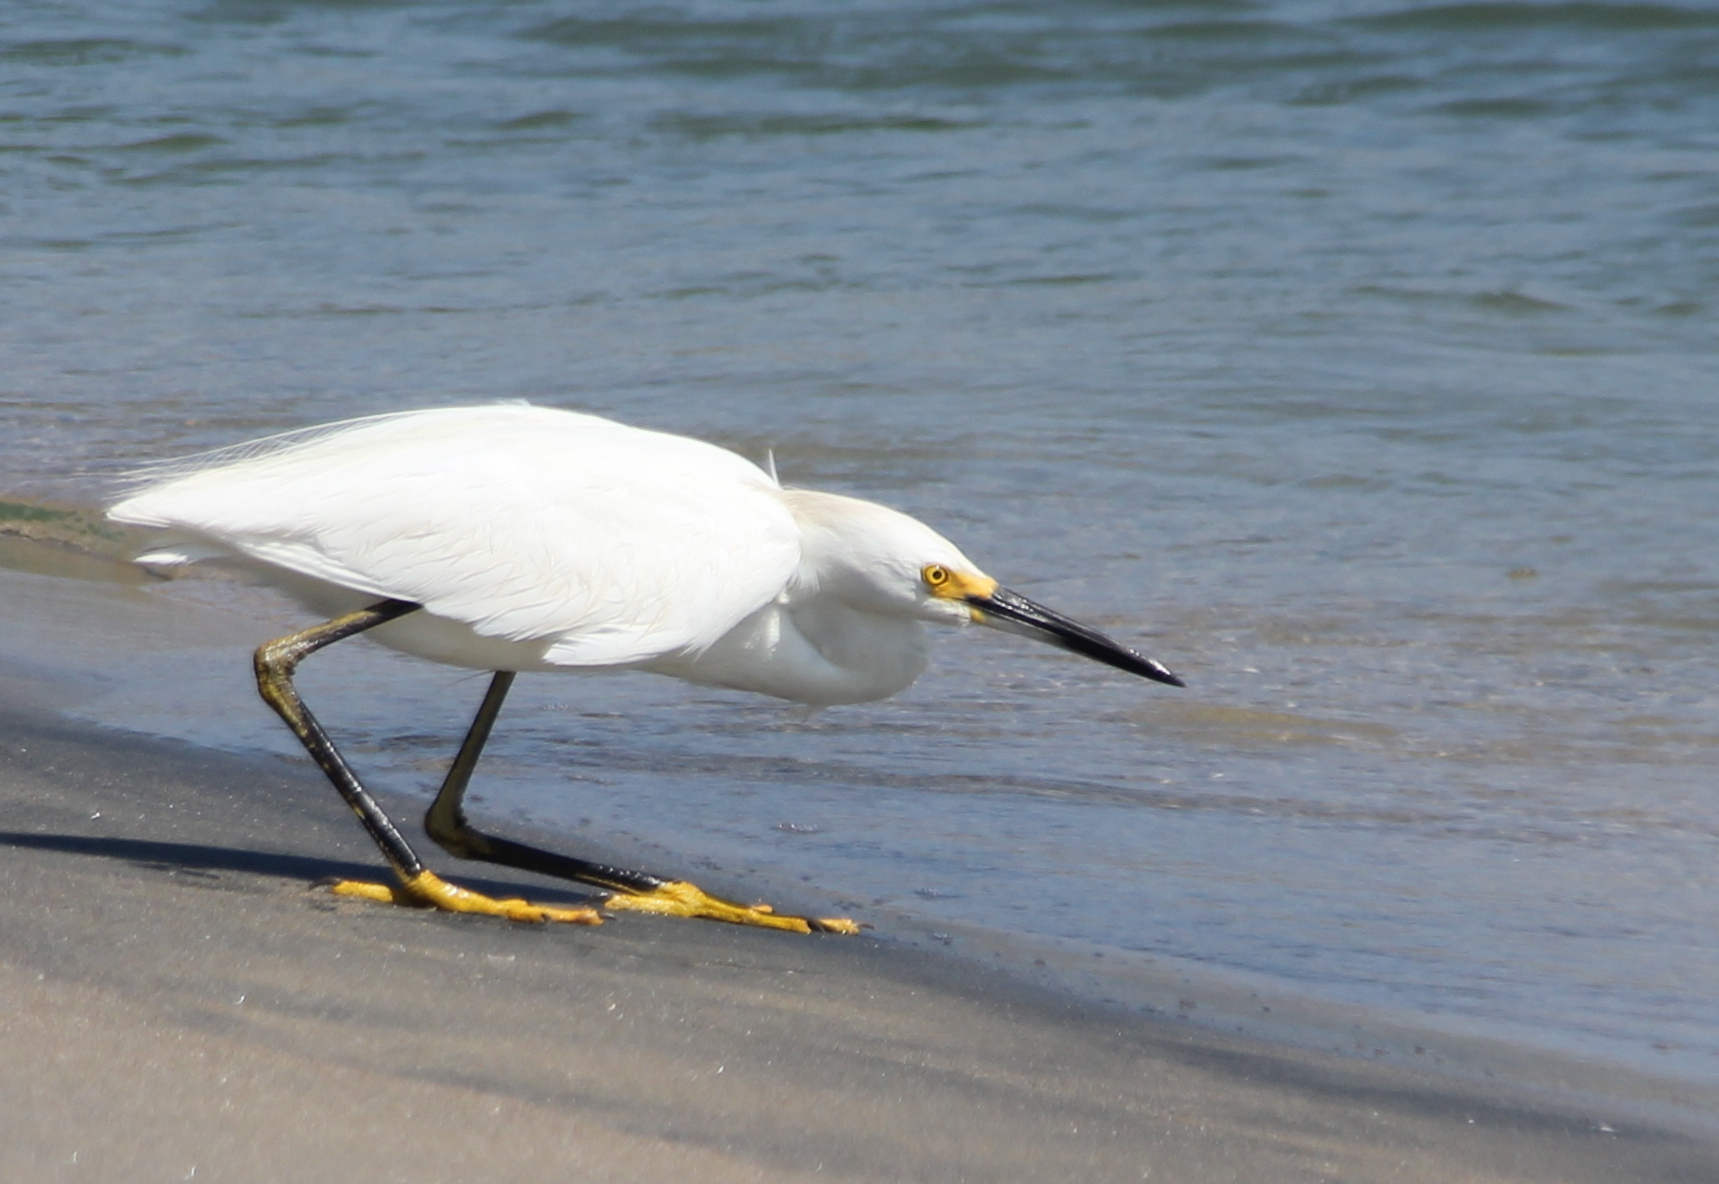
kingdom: Animalia
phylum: Chordata
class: Aves
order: Pelecaniformes
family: Ardeidae
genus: Egretta
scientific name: Egretta thula
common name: Snowy egret
